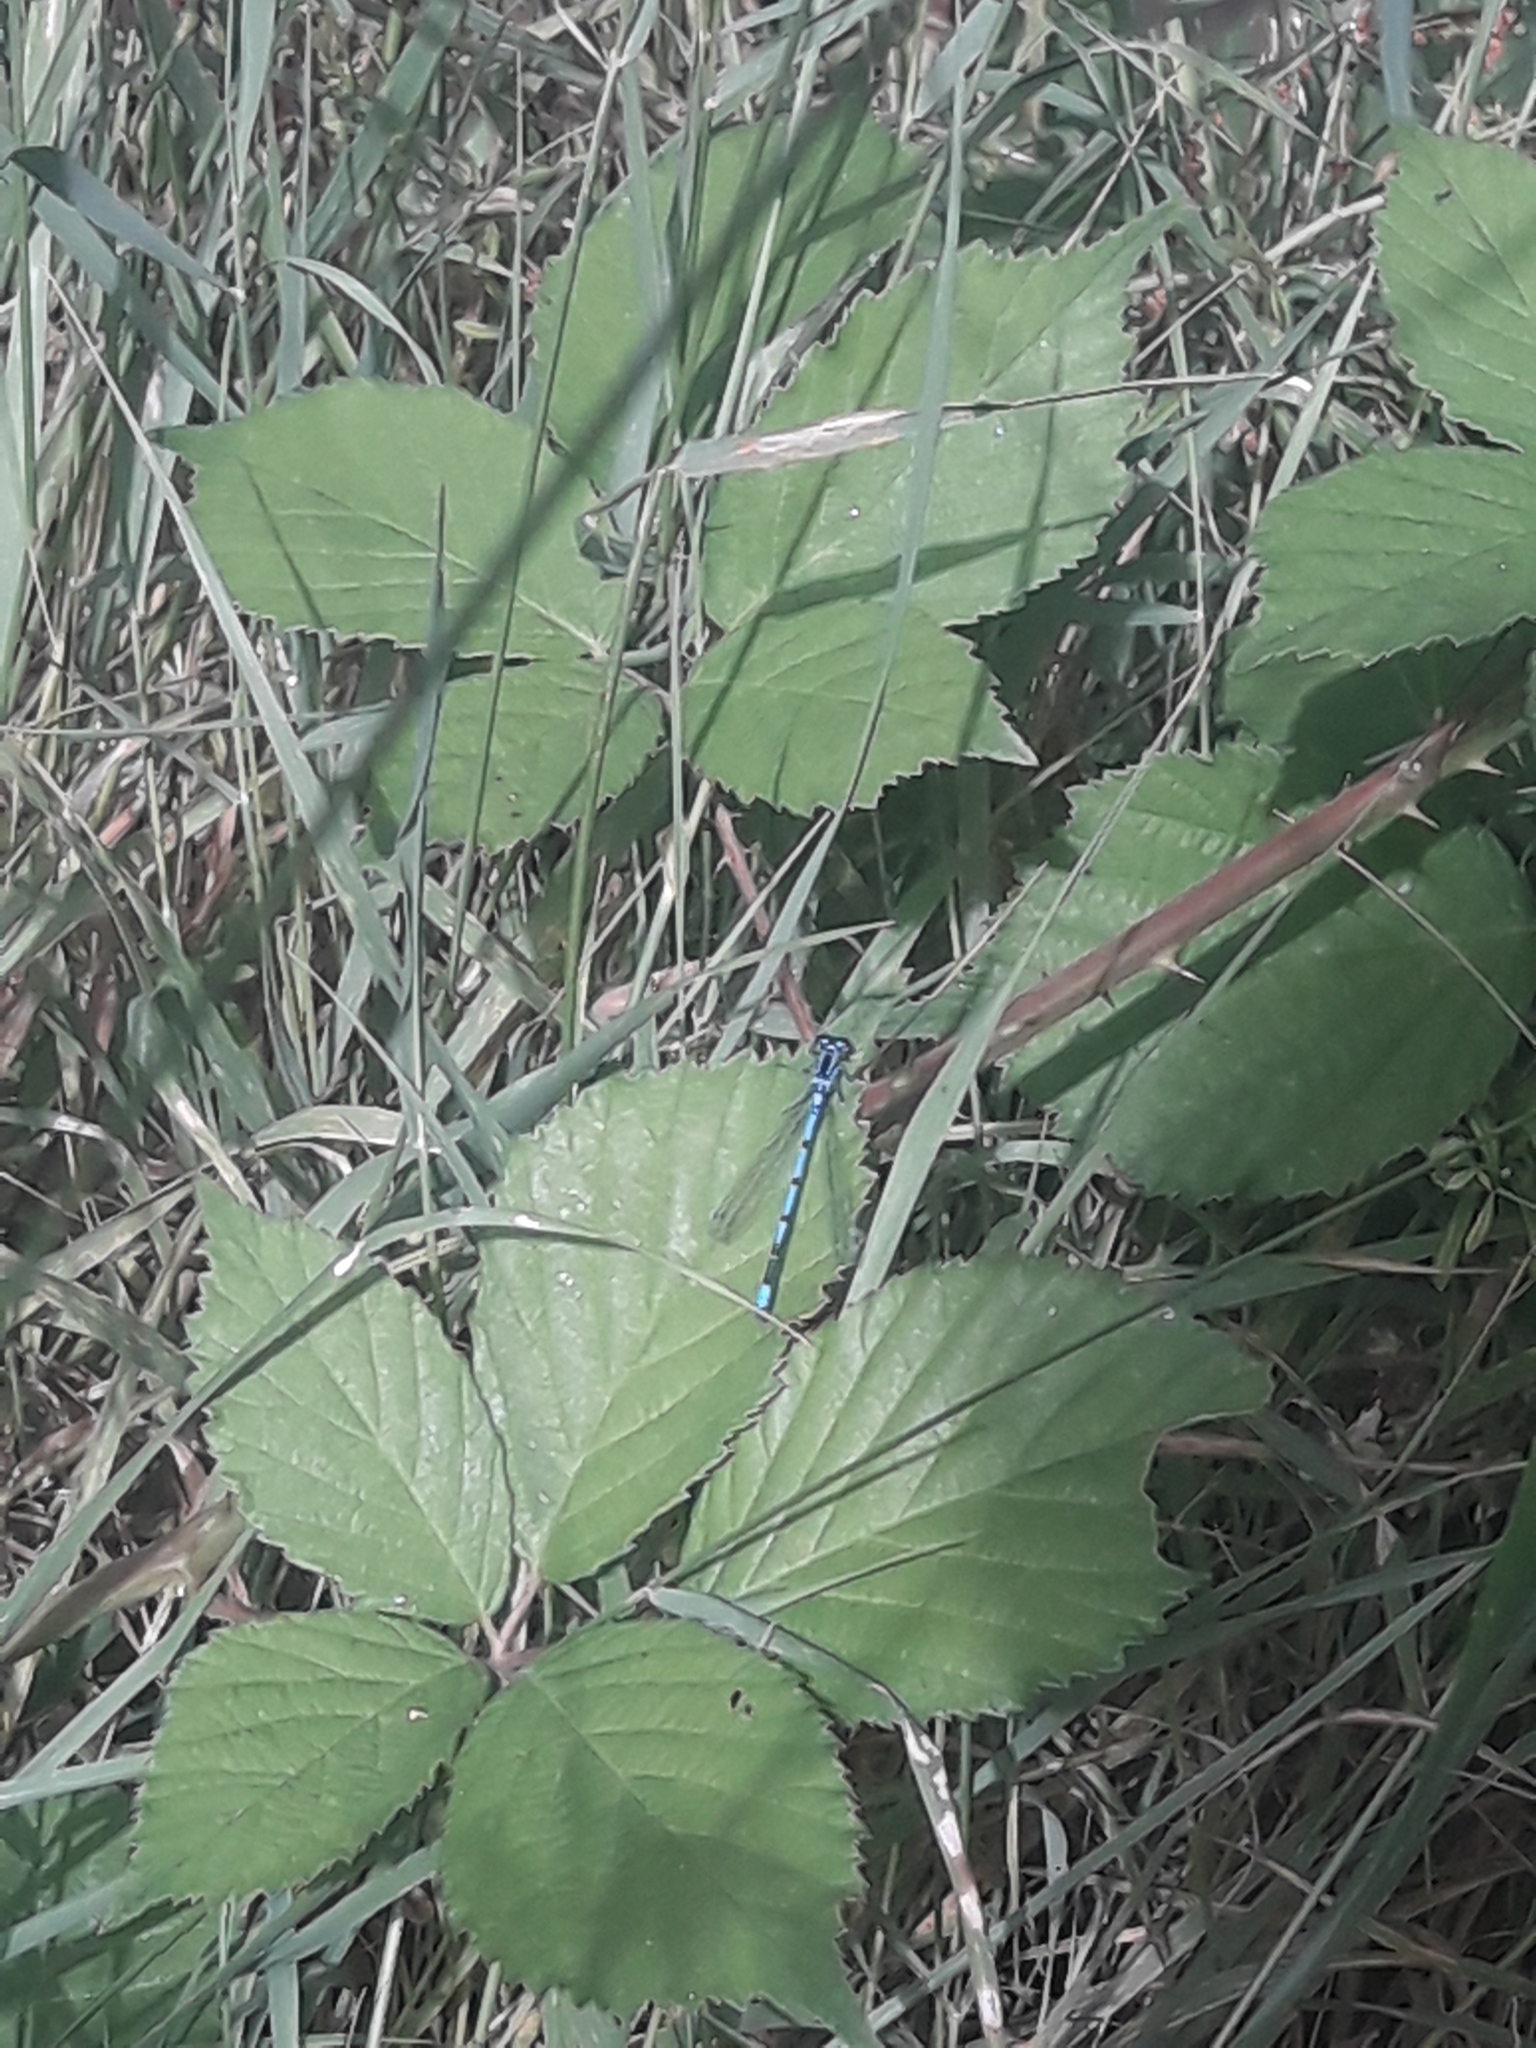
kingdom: Animalia
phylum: Arthropoda
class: Insecta
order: Odonata
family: Coenagrionidae
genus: Coenagrion
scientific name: Coenagrion puella
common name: Azure damselfly
